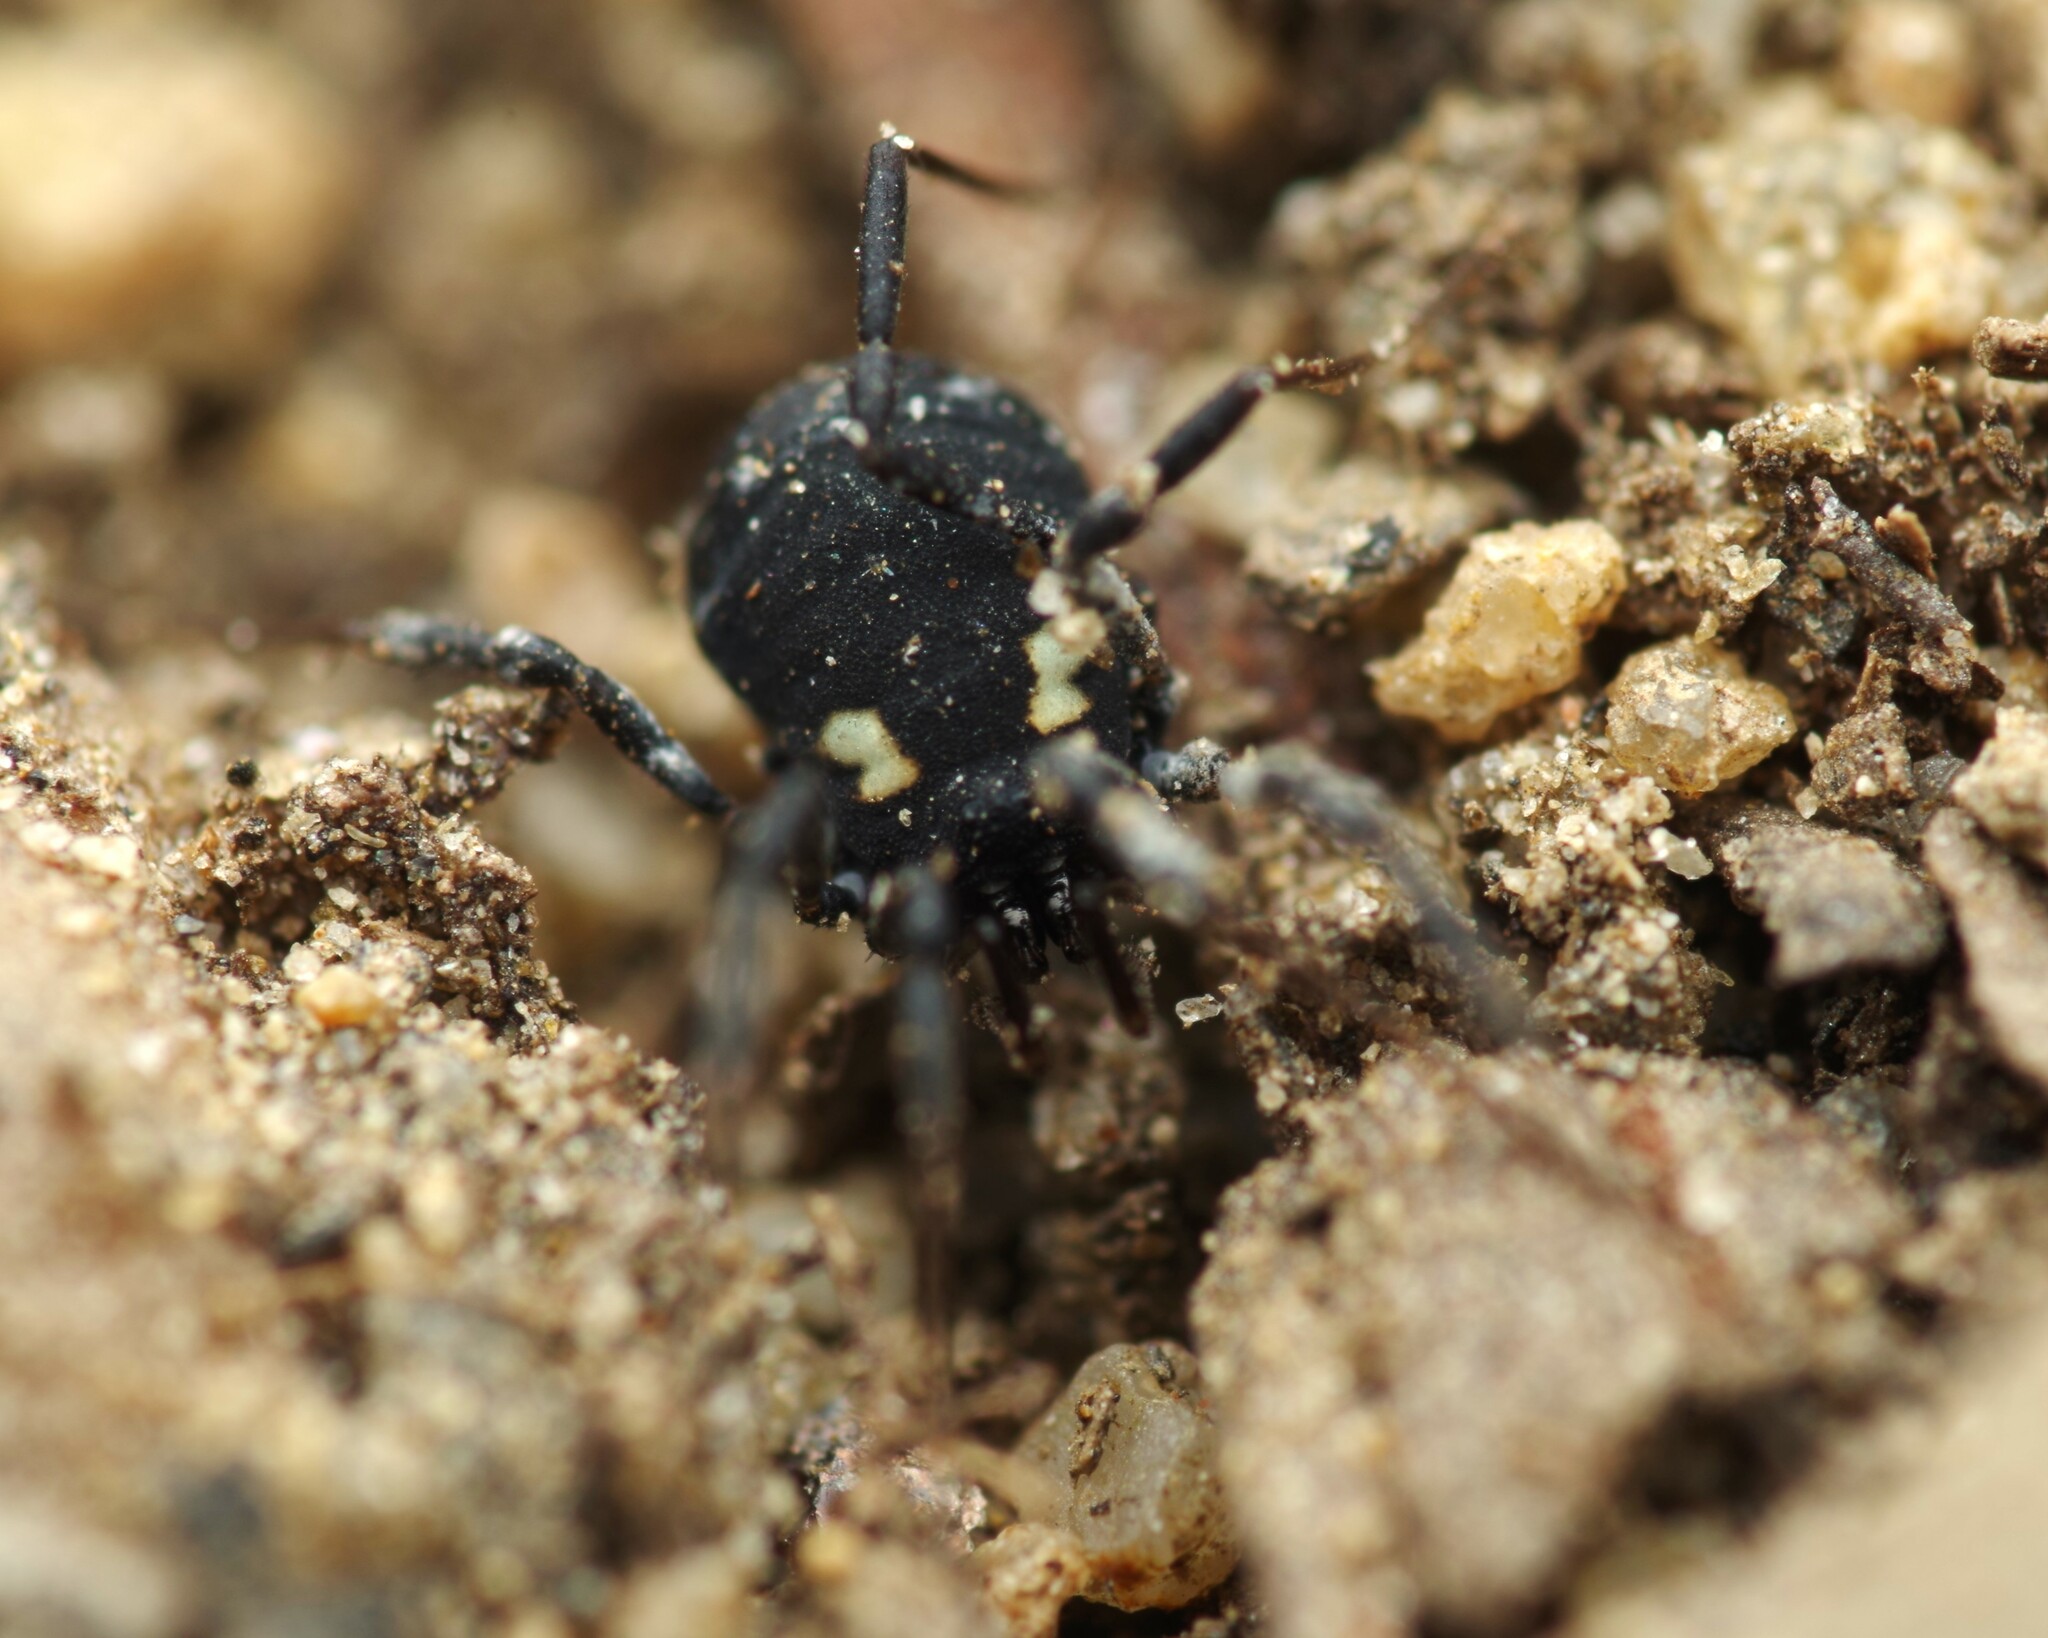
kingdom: Animalia
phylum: Arthropoda
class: Arachnida
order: Opiliones
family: Nemastomatidae
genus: Nemastoma
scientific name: Nemastoma bimaculatum
